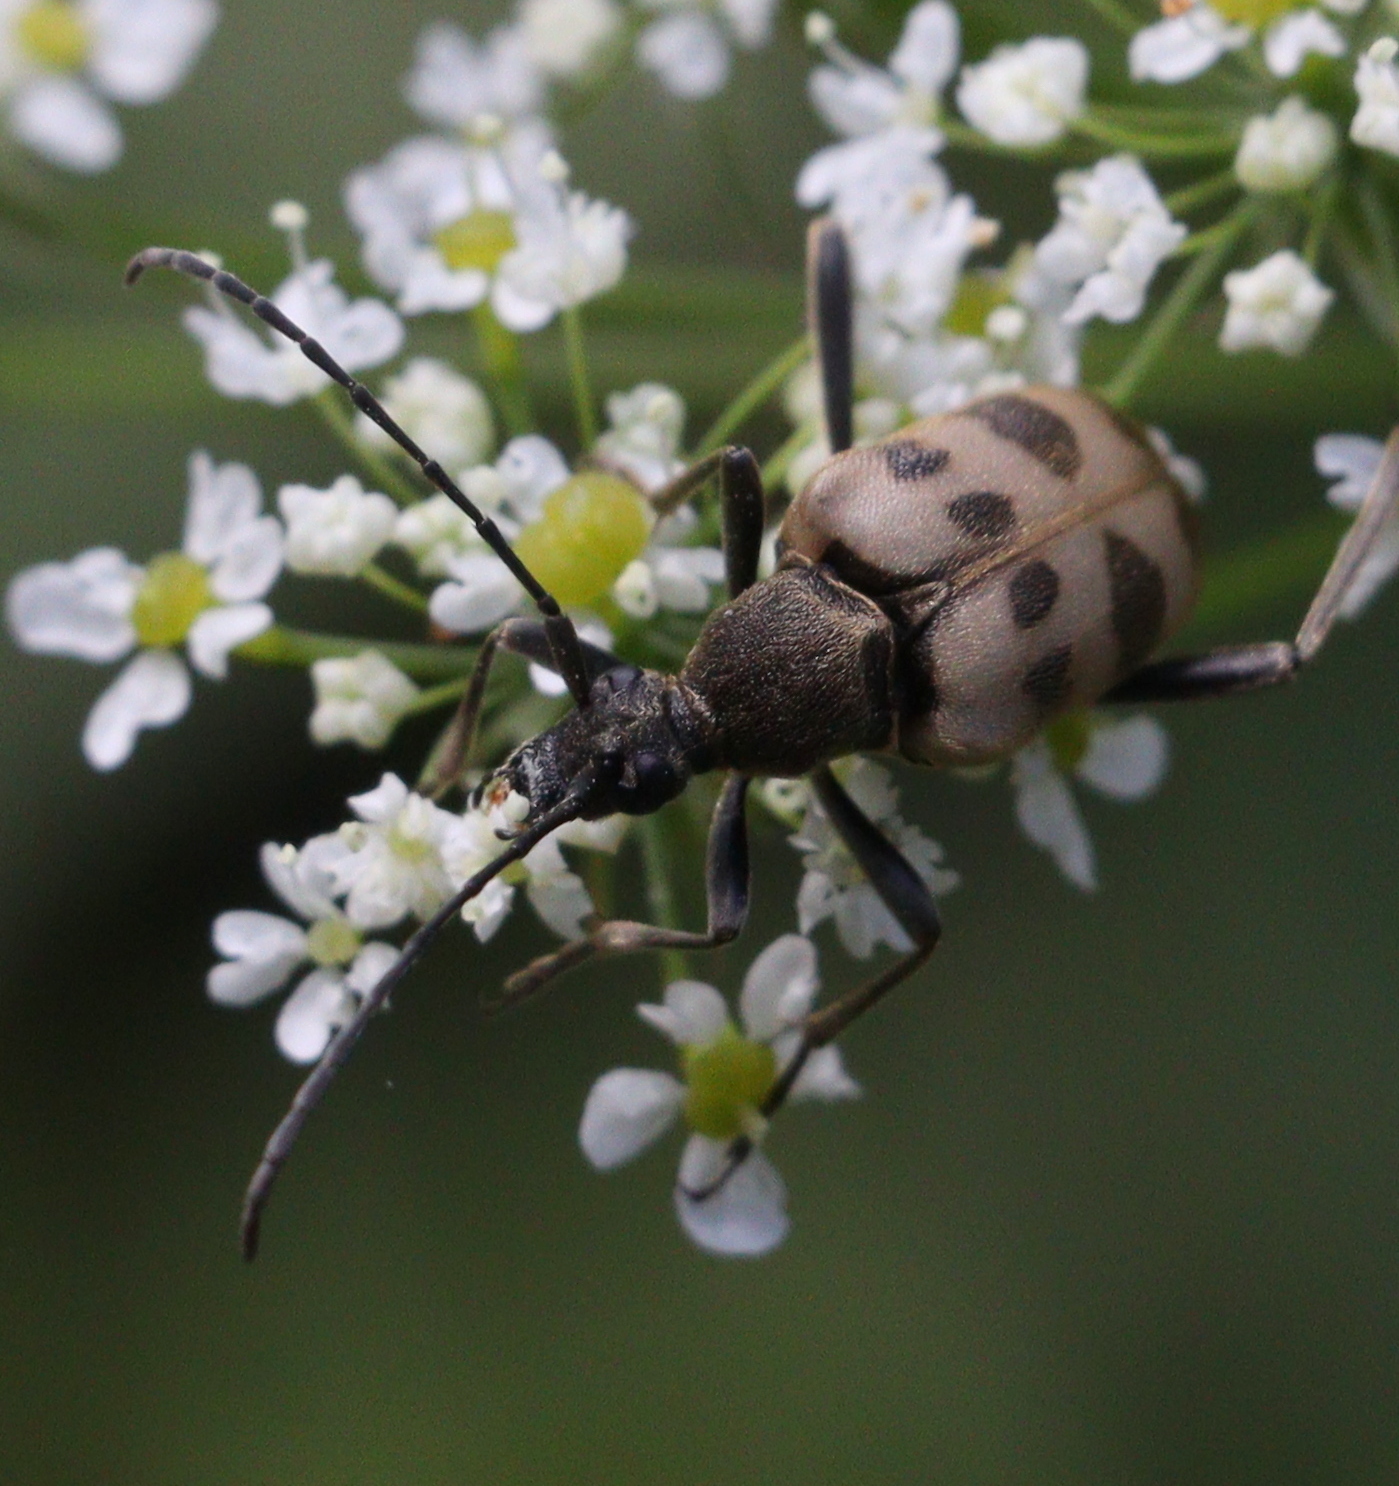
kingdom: Animalia
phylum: Arthropoda
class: Insecta
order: Coleoptera
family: Cerambycidae
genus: Pachytodes
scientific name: Pachytodes cerambyciformis
